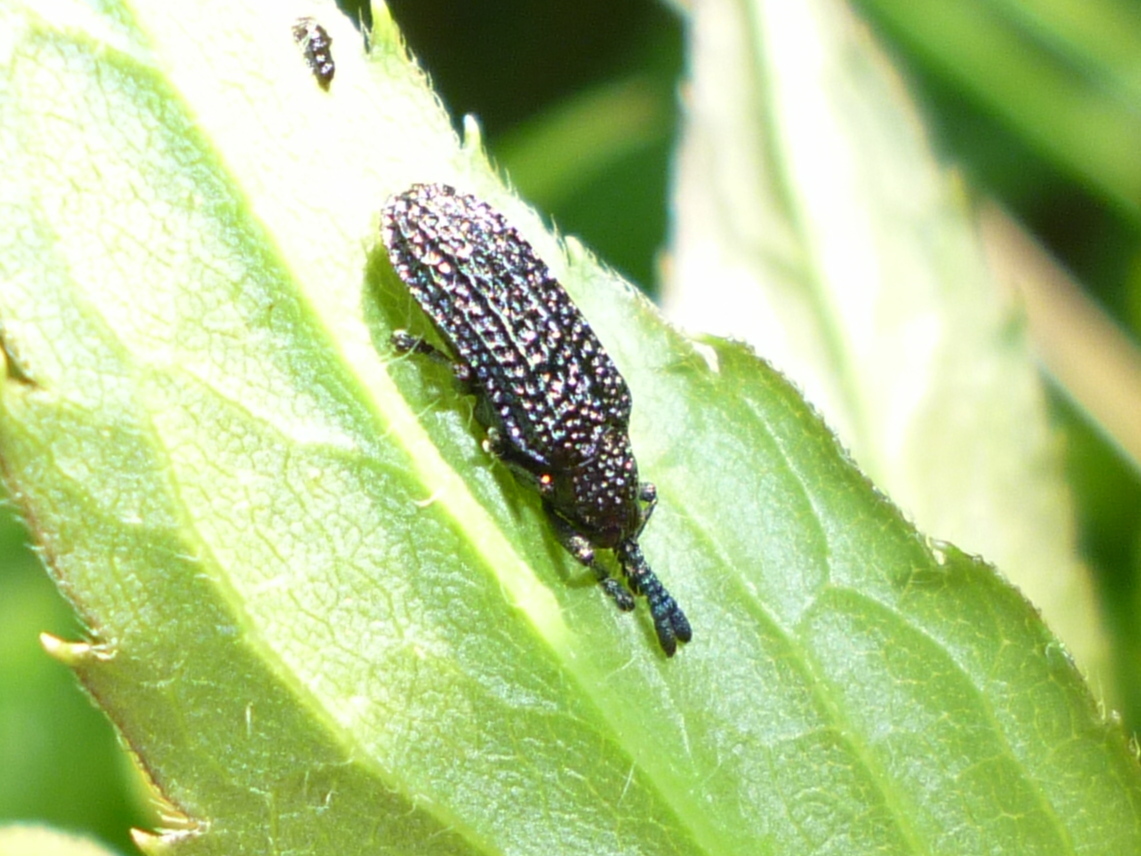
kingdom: Animalia
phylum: Arthropoda
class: Insecta
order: Coleoptera
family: Chrysomelidae
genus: Microrhopala
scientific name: Microrhopala excavata
